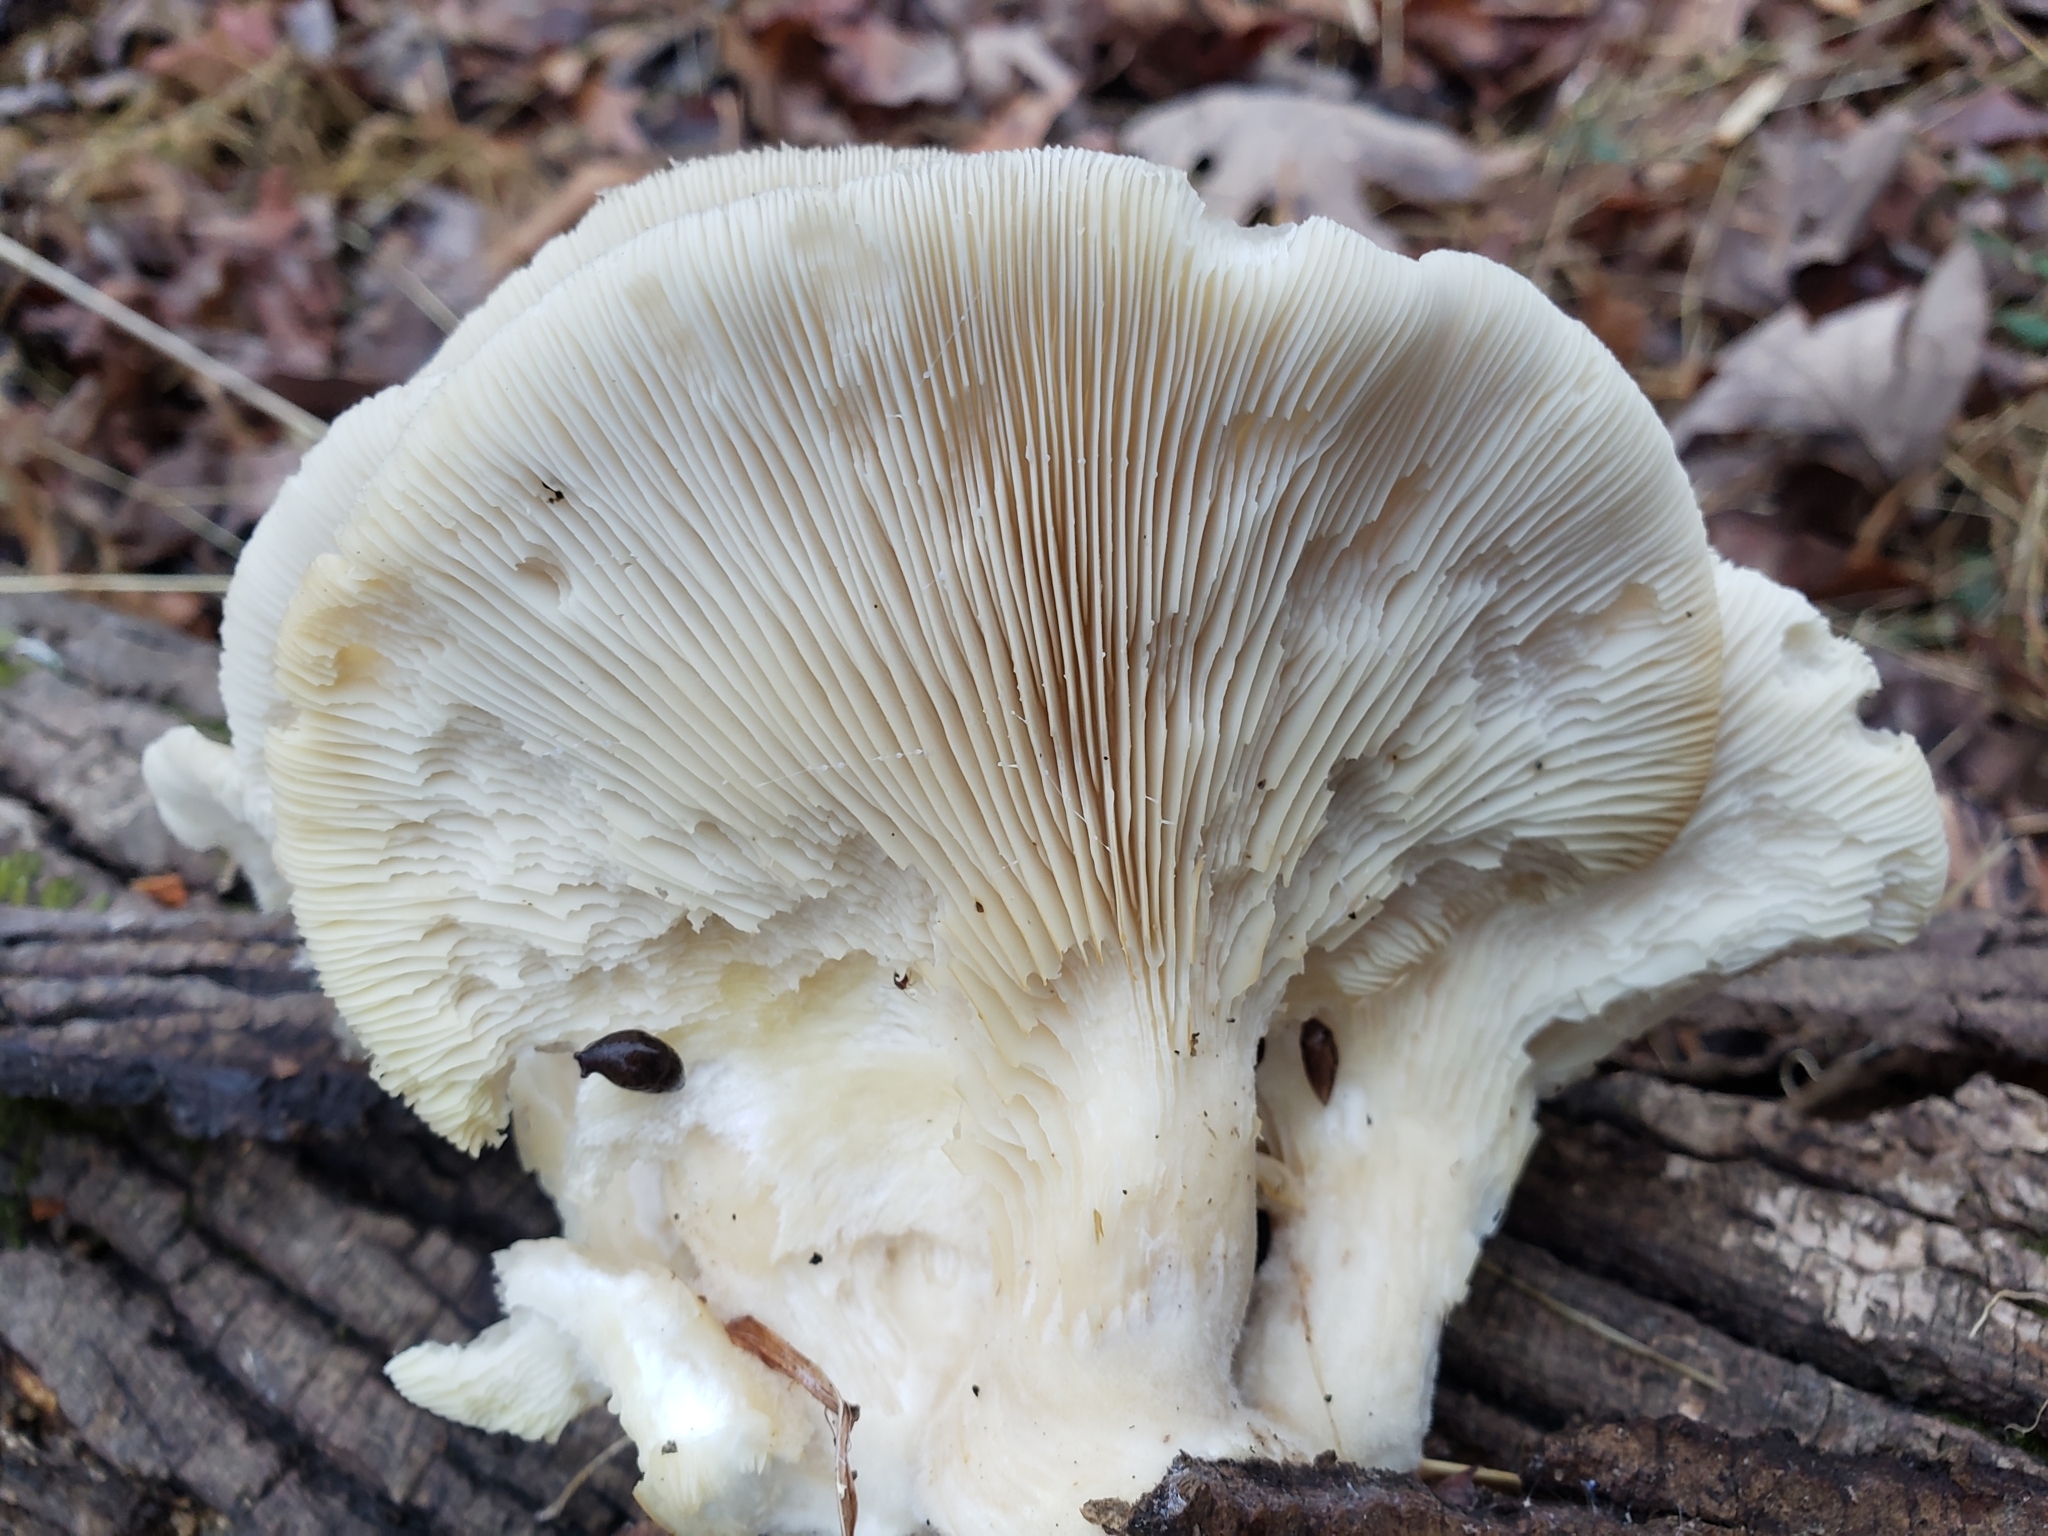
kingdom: Fungi
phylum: Basidiomycota
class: Agaricomycetes
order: Agaricales
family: Pleurotaceae
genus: Pleurotus
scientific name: Pleurotus ostreatus
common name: Oyster mushroom
